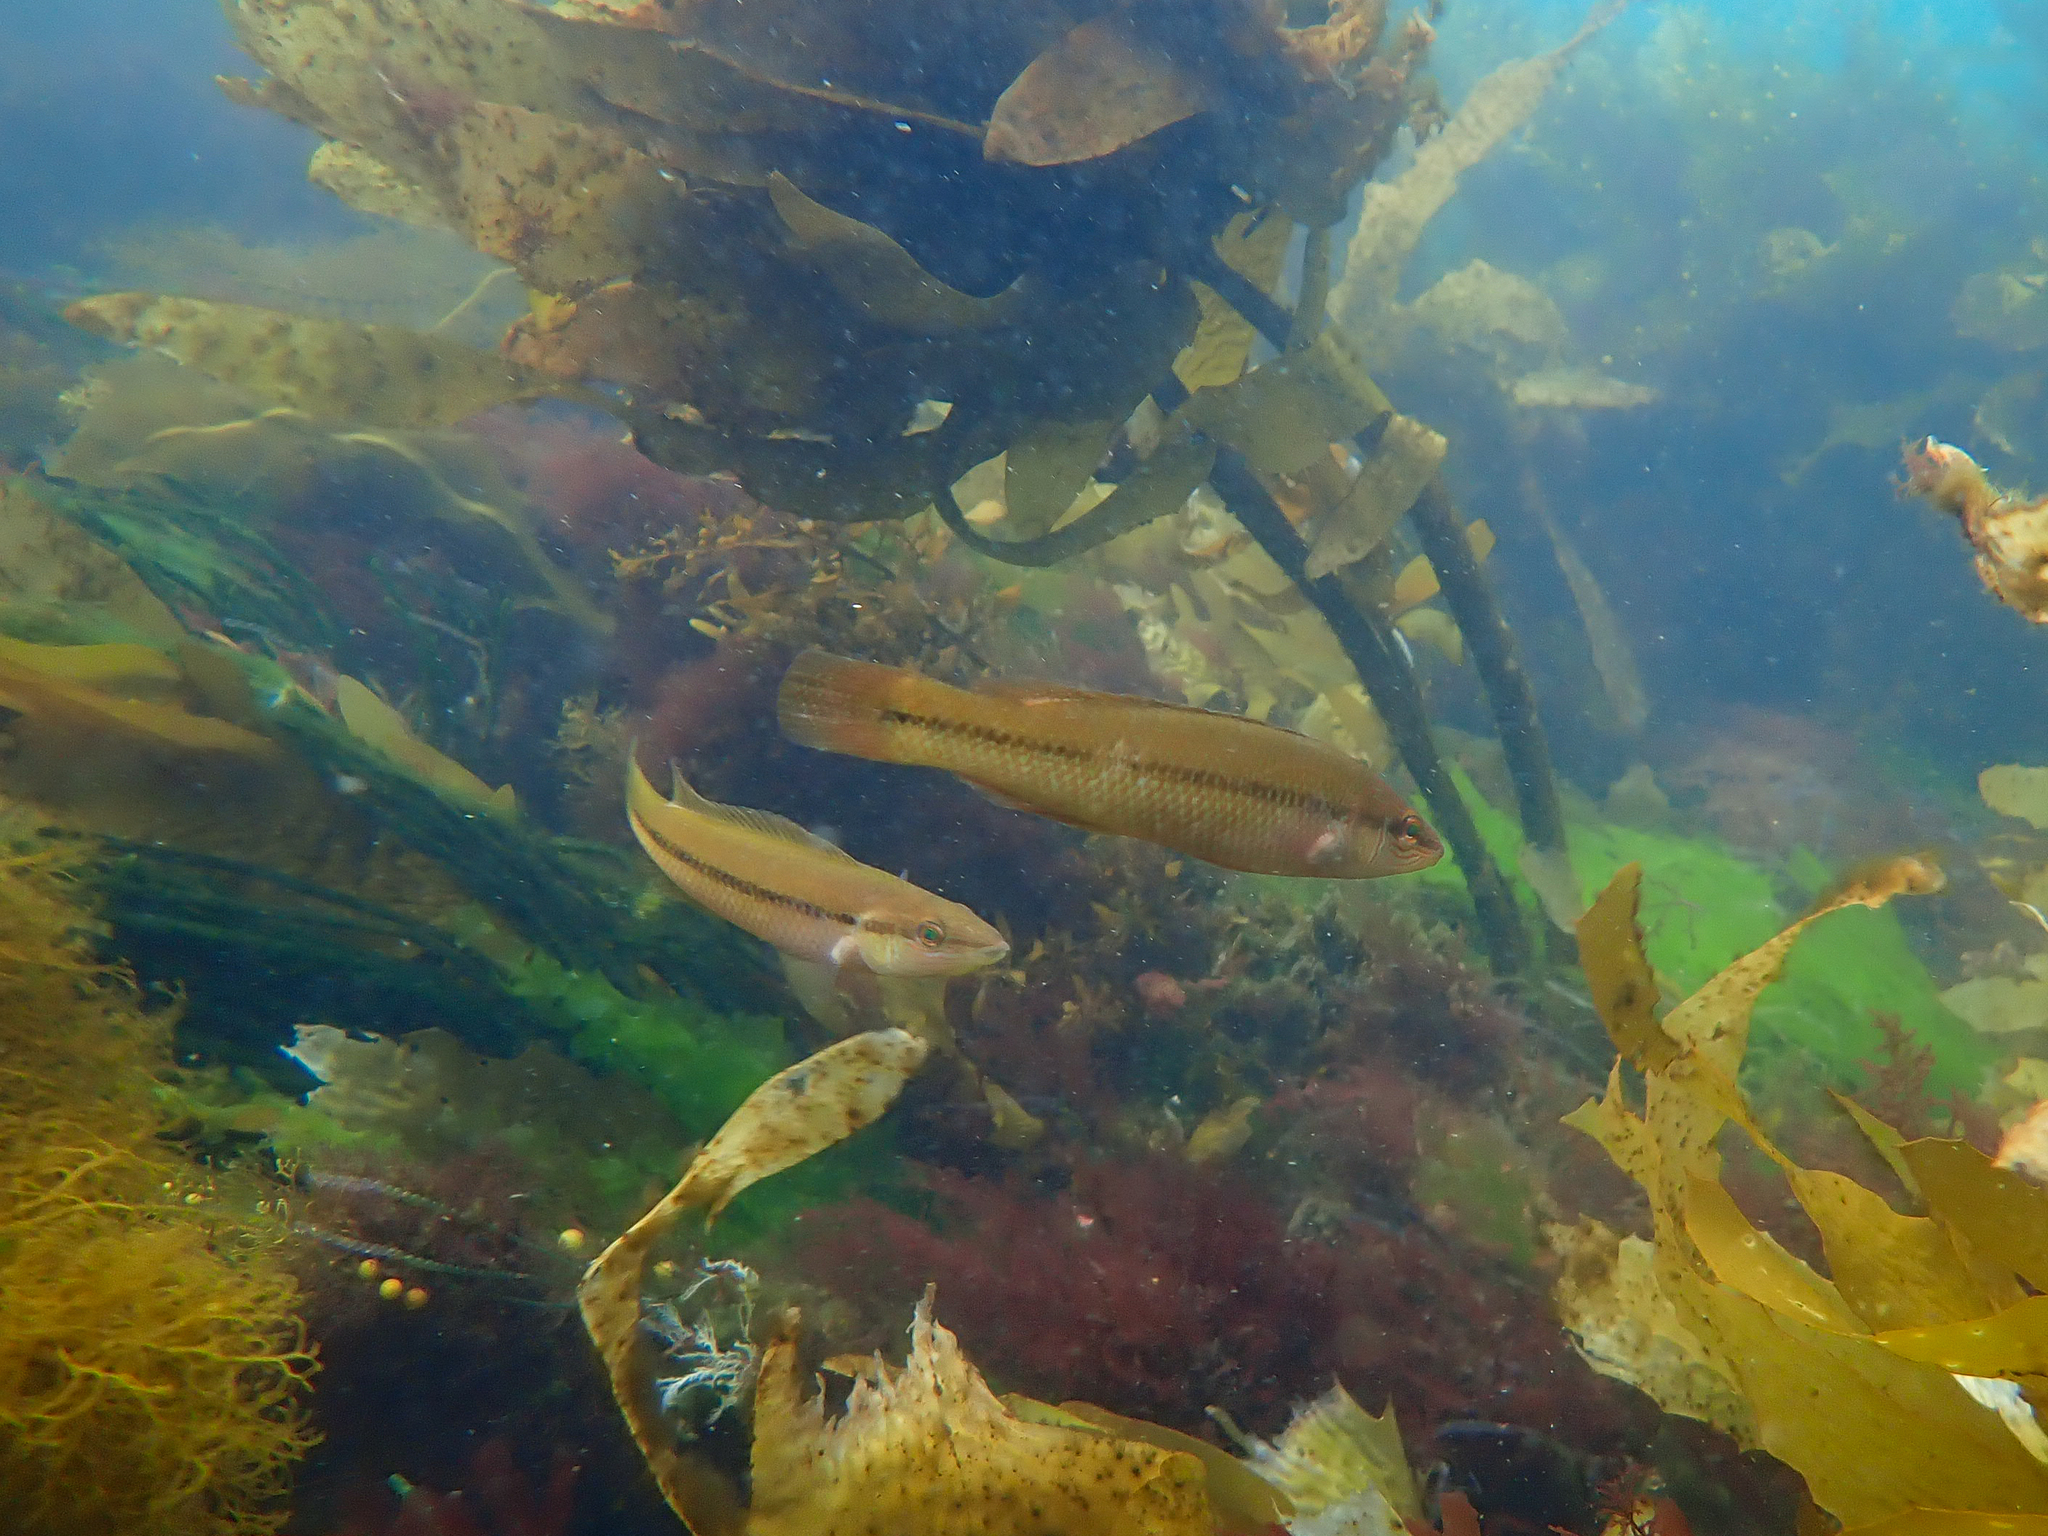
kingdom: Animalia
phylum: Chordata
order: Perciformes
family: Odacidae
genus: Neoodax
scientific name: Neoodax balteatus
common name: Ground mullet
